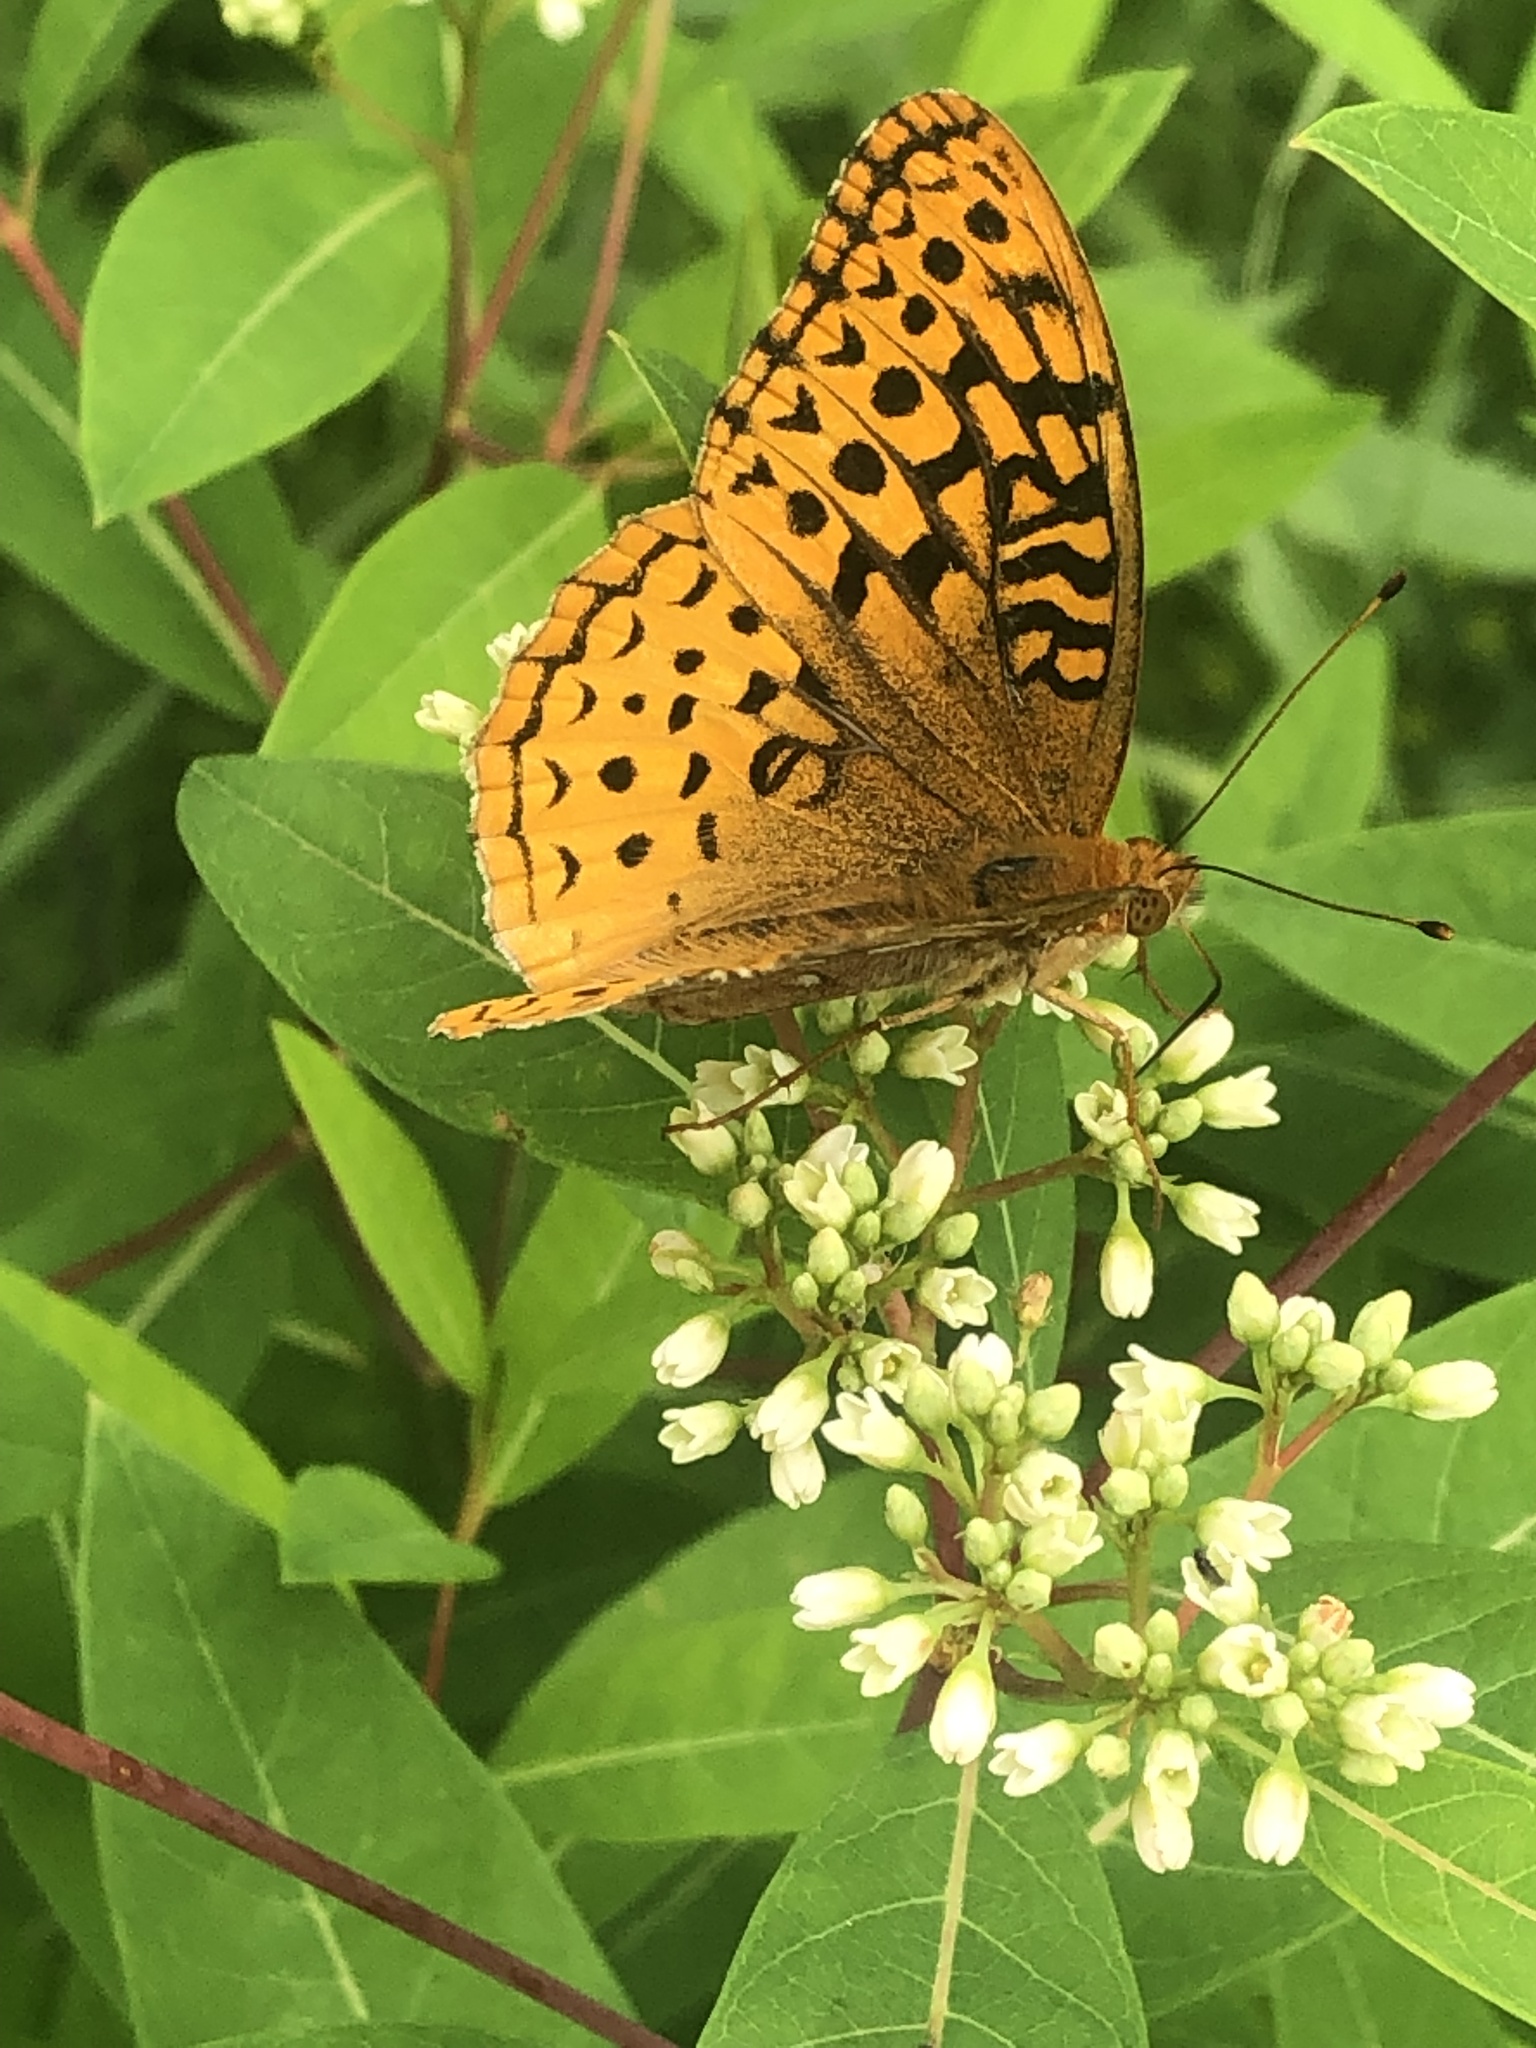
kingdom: Animalia
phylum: Arthropoda
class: Insecta
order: Lepidoptera
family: Nymphalidae
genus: Speyeria
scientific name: Speyeria aphrodite
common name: Aphrodite friitllary
